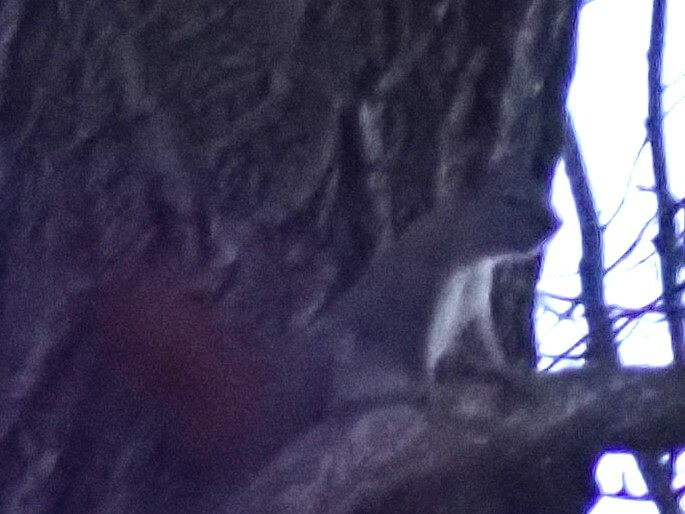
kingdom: Animalia
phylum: Chordata
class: Mammalia
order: Rodentia
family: Sciuridae
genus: Tamiasciurus
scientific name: Tamiasciurus hudsonicus
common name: Red squirrel
